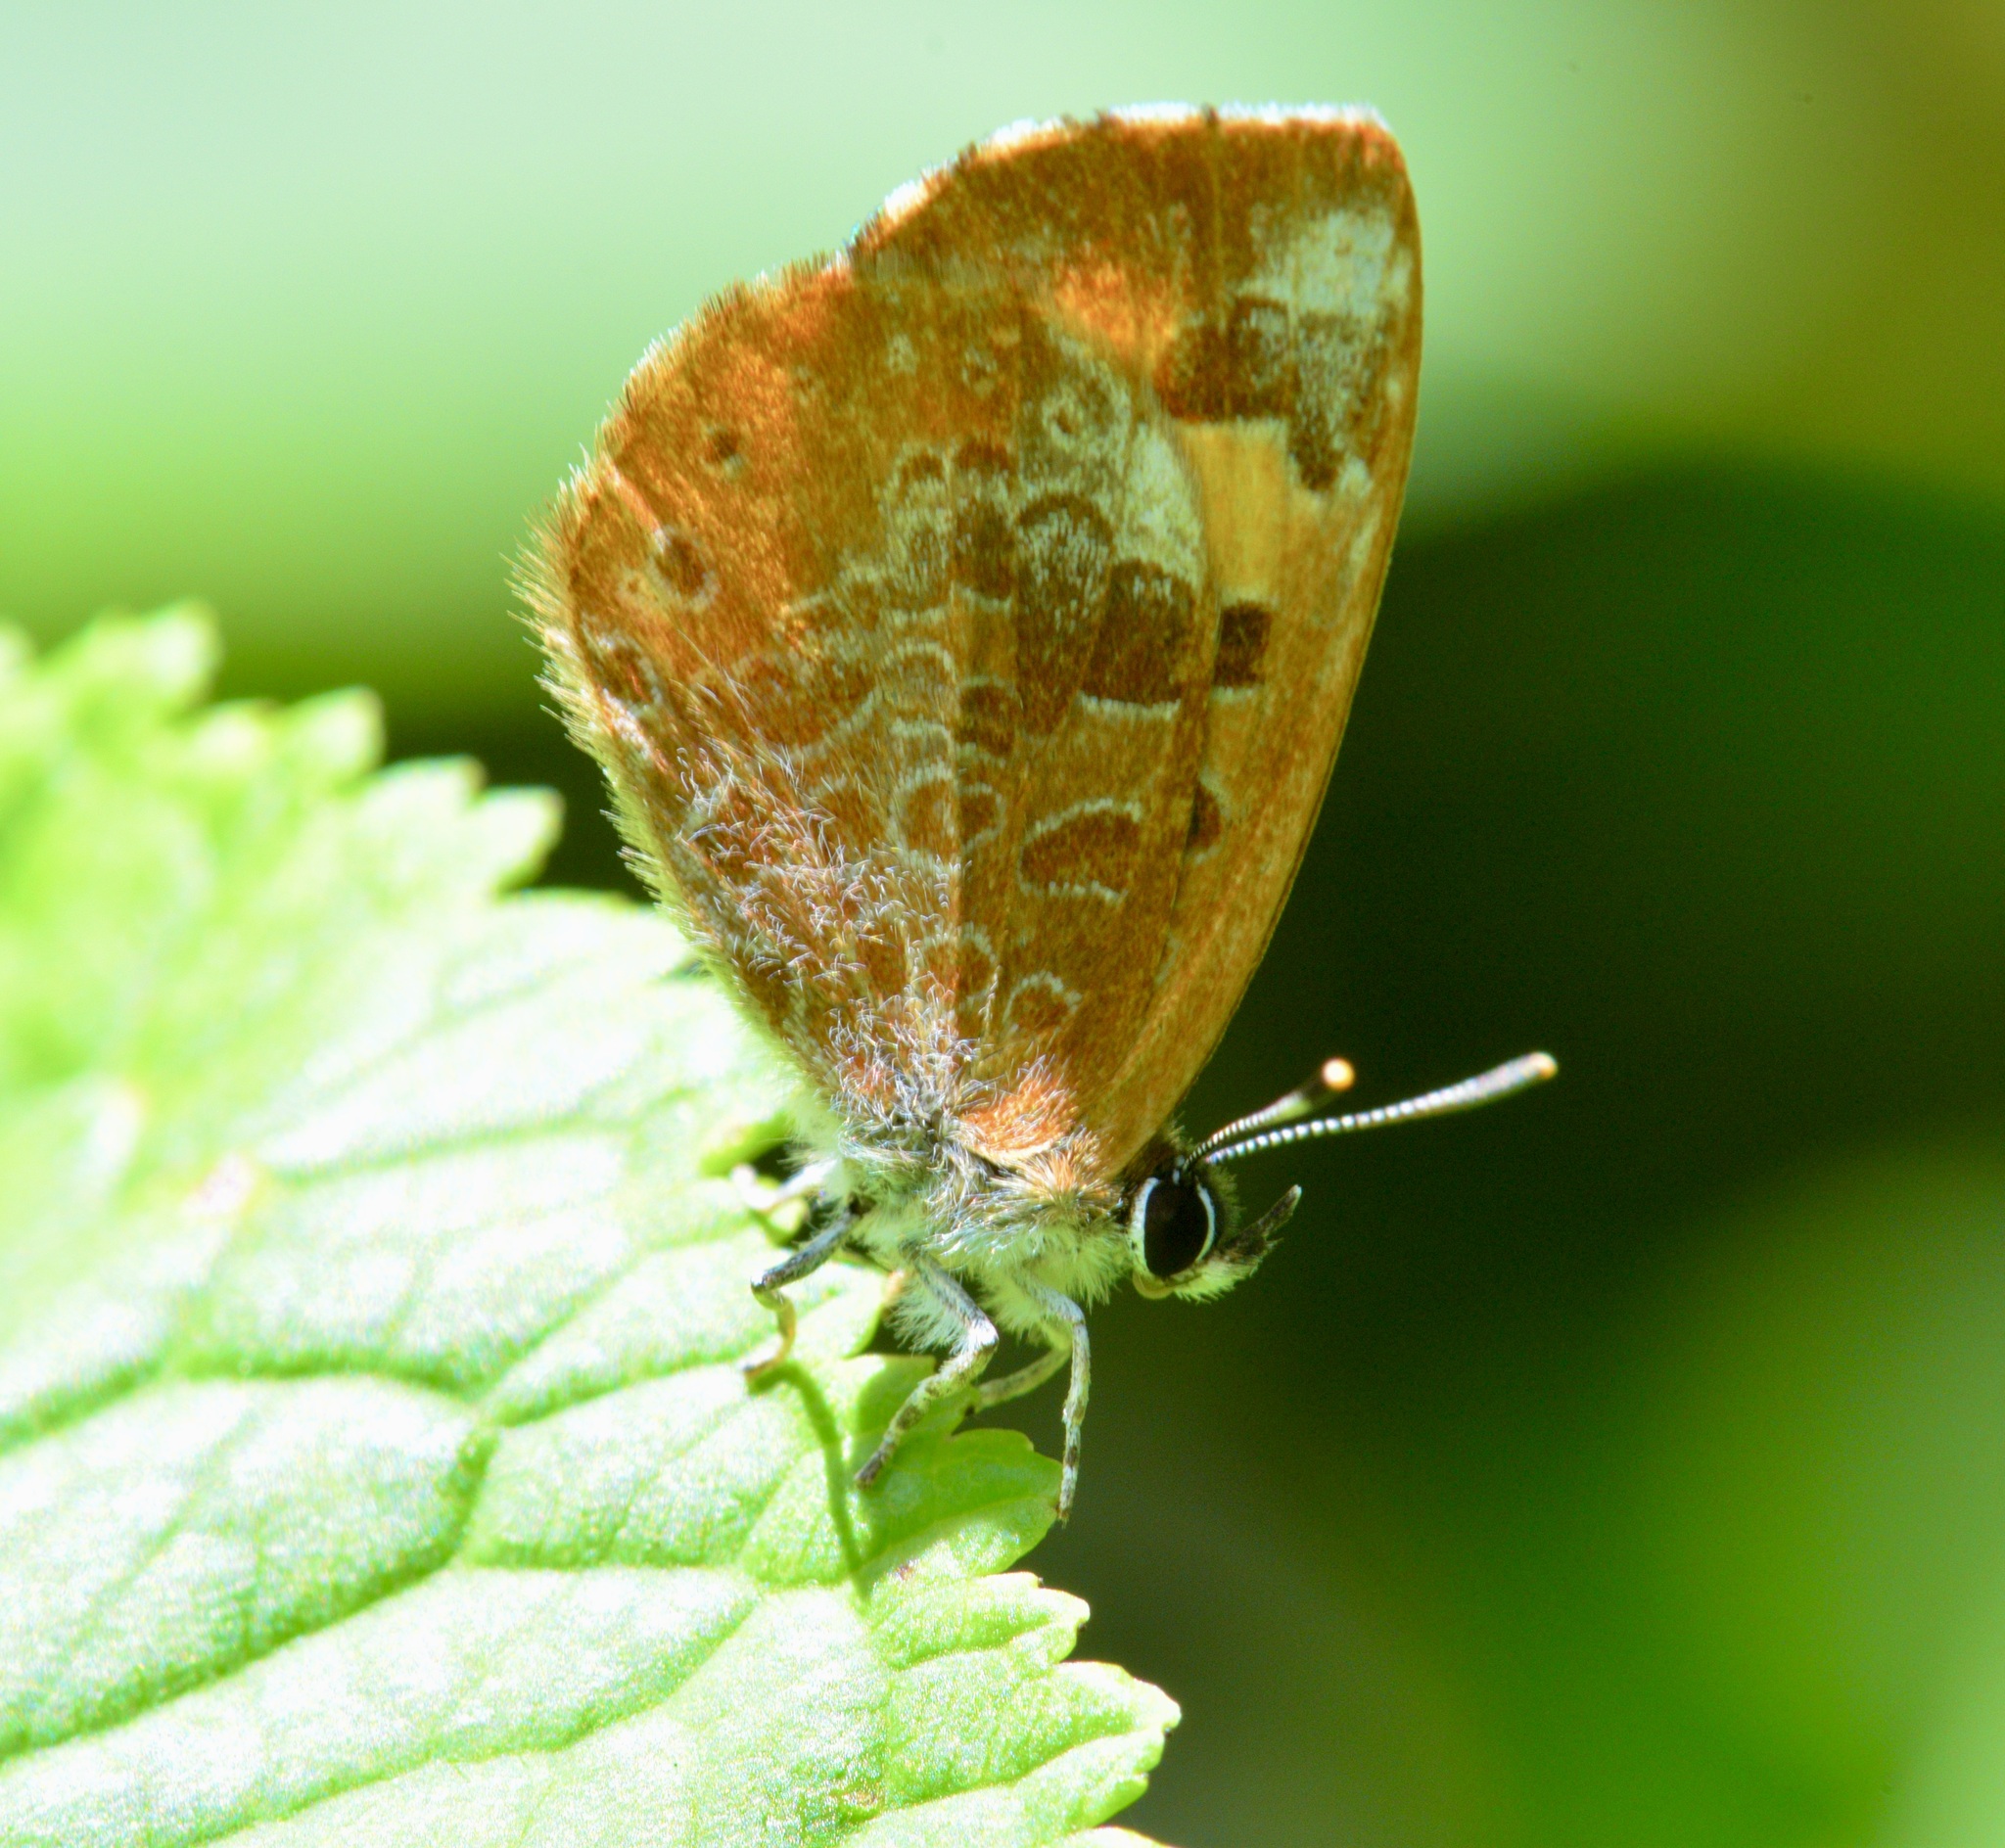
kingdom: Animalia
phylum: Arthropoda
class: Insecta
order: Lepidoptera
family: Lycaenidae
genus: Feniseca
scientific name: Feniseca tarquinius
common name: Harvester
